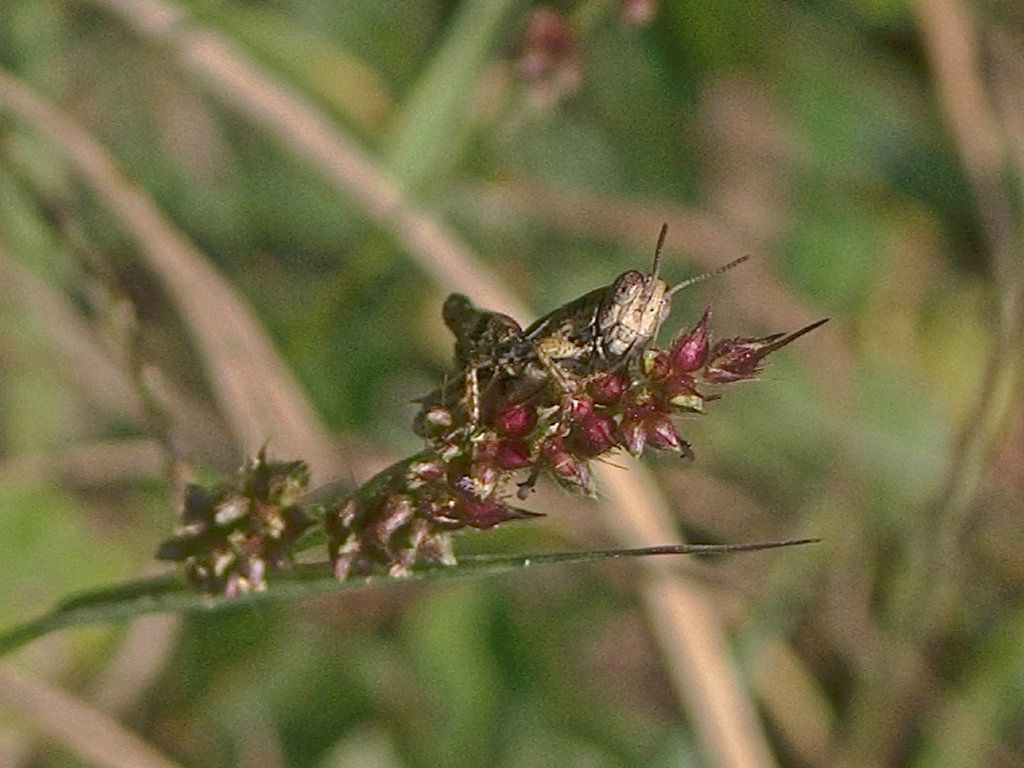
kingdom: Animalia
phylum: Arthropoda
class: Insecta
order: Orthoptera
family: Acrididae
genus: Pezotettix
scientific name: Pezotettix giornae
